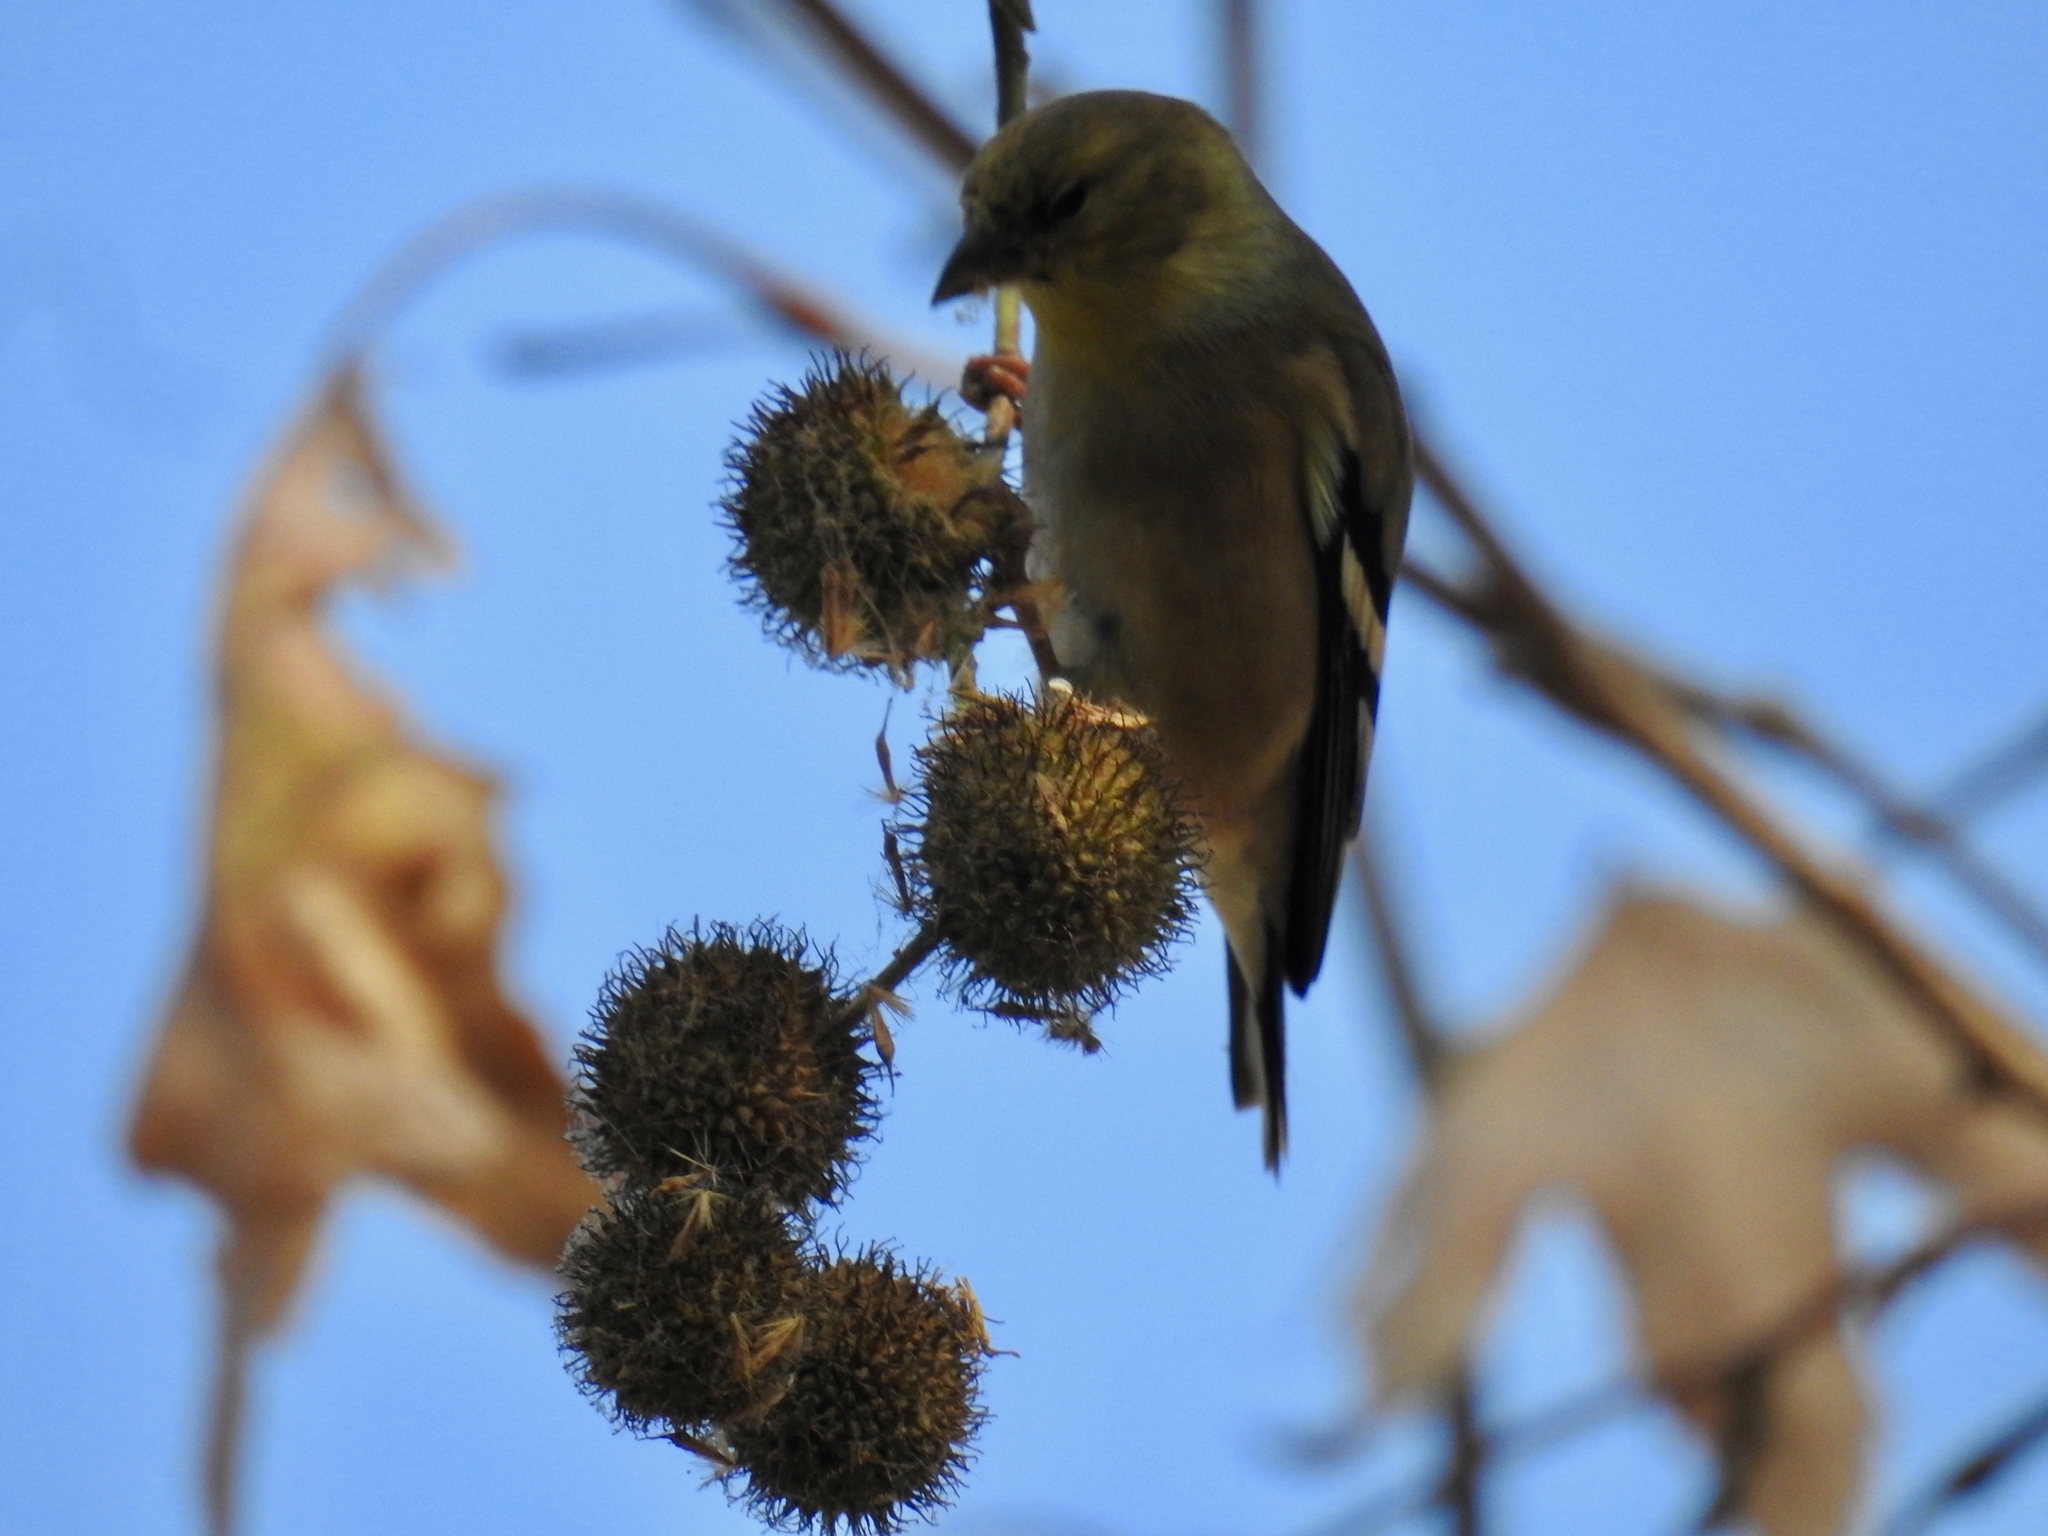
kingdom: Animalia
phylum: Chordata
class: Aves
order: Passeriformes
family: Fringillidae
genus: Spinus
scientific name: Spinus tristis
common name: American goldfinch
